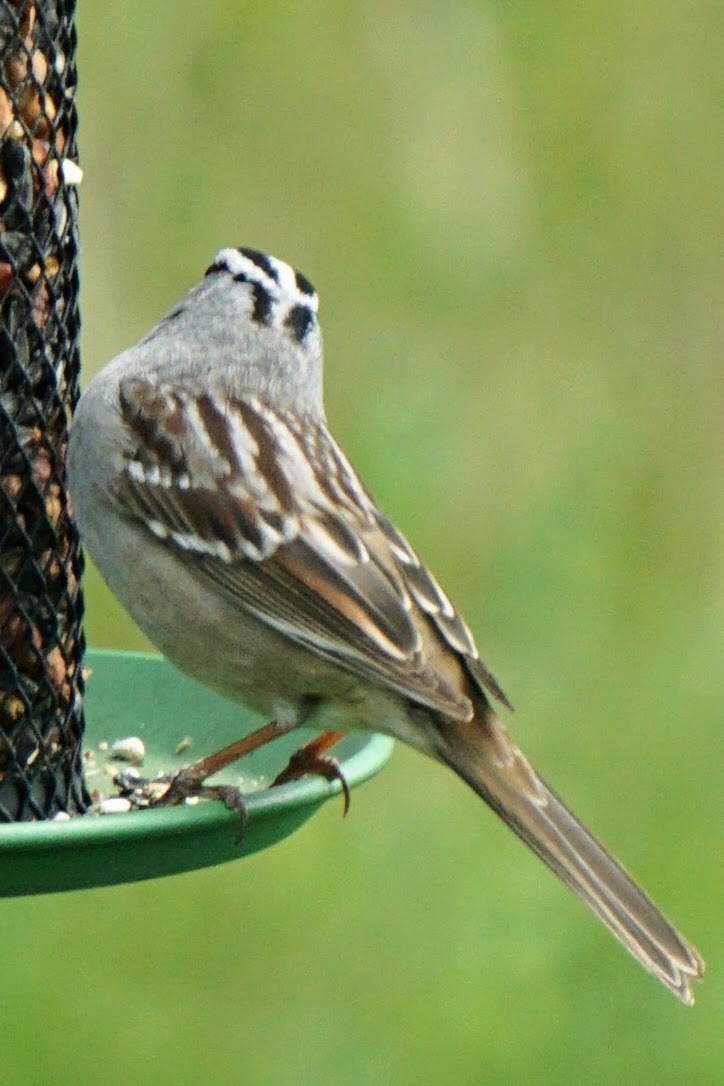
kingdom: Animalia
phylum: Chordata
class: Aves
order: Passeriformes
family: Passerellidae
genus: Zonotrichia
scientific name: Zonotrichia leucophrys
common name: White-crowned sparrow
